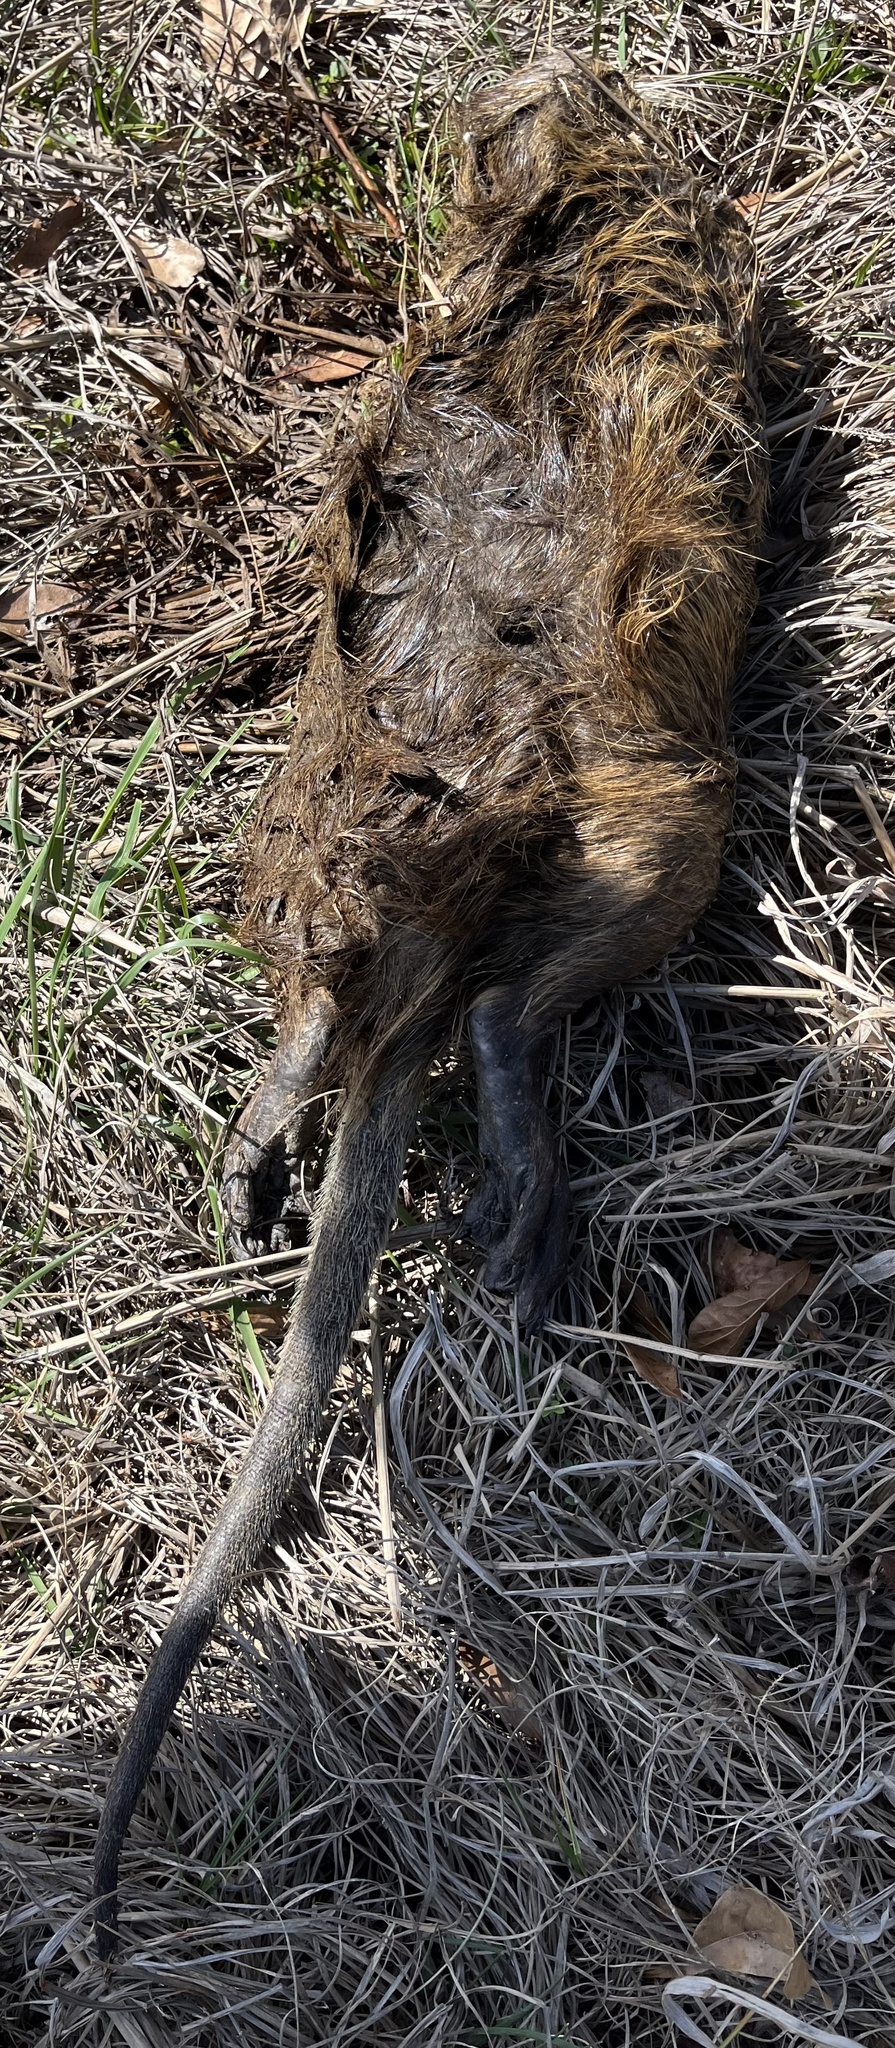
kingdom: Animalia
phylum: Chordata
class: Mammalia
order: Rodentia
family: Myocastoridae
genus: Myocastor
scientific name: Myocastor coypus
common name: Coypu
